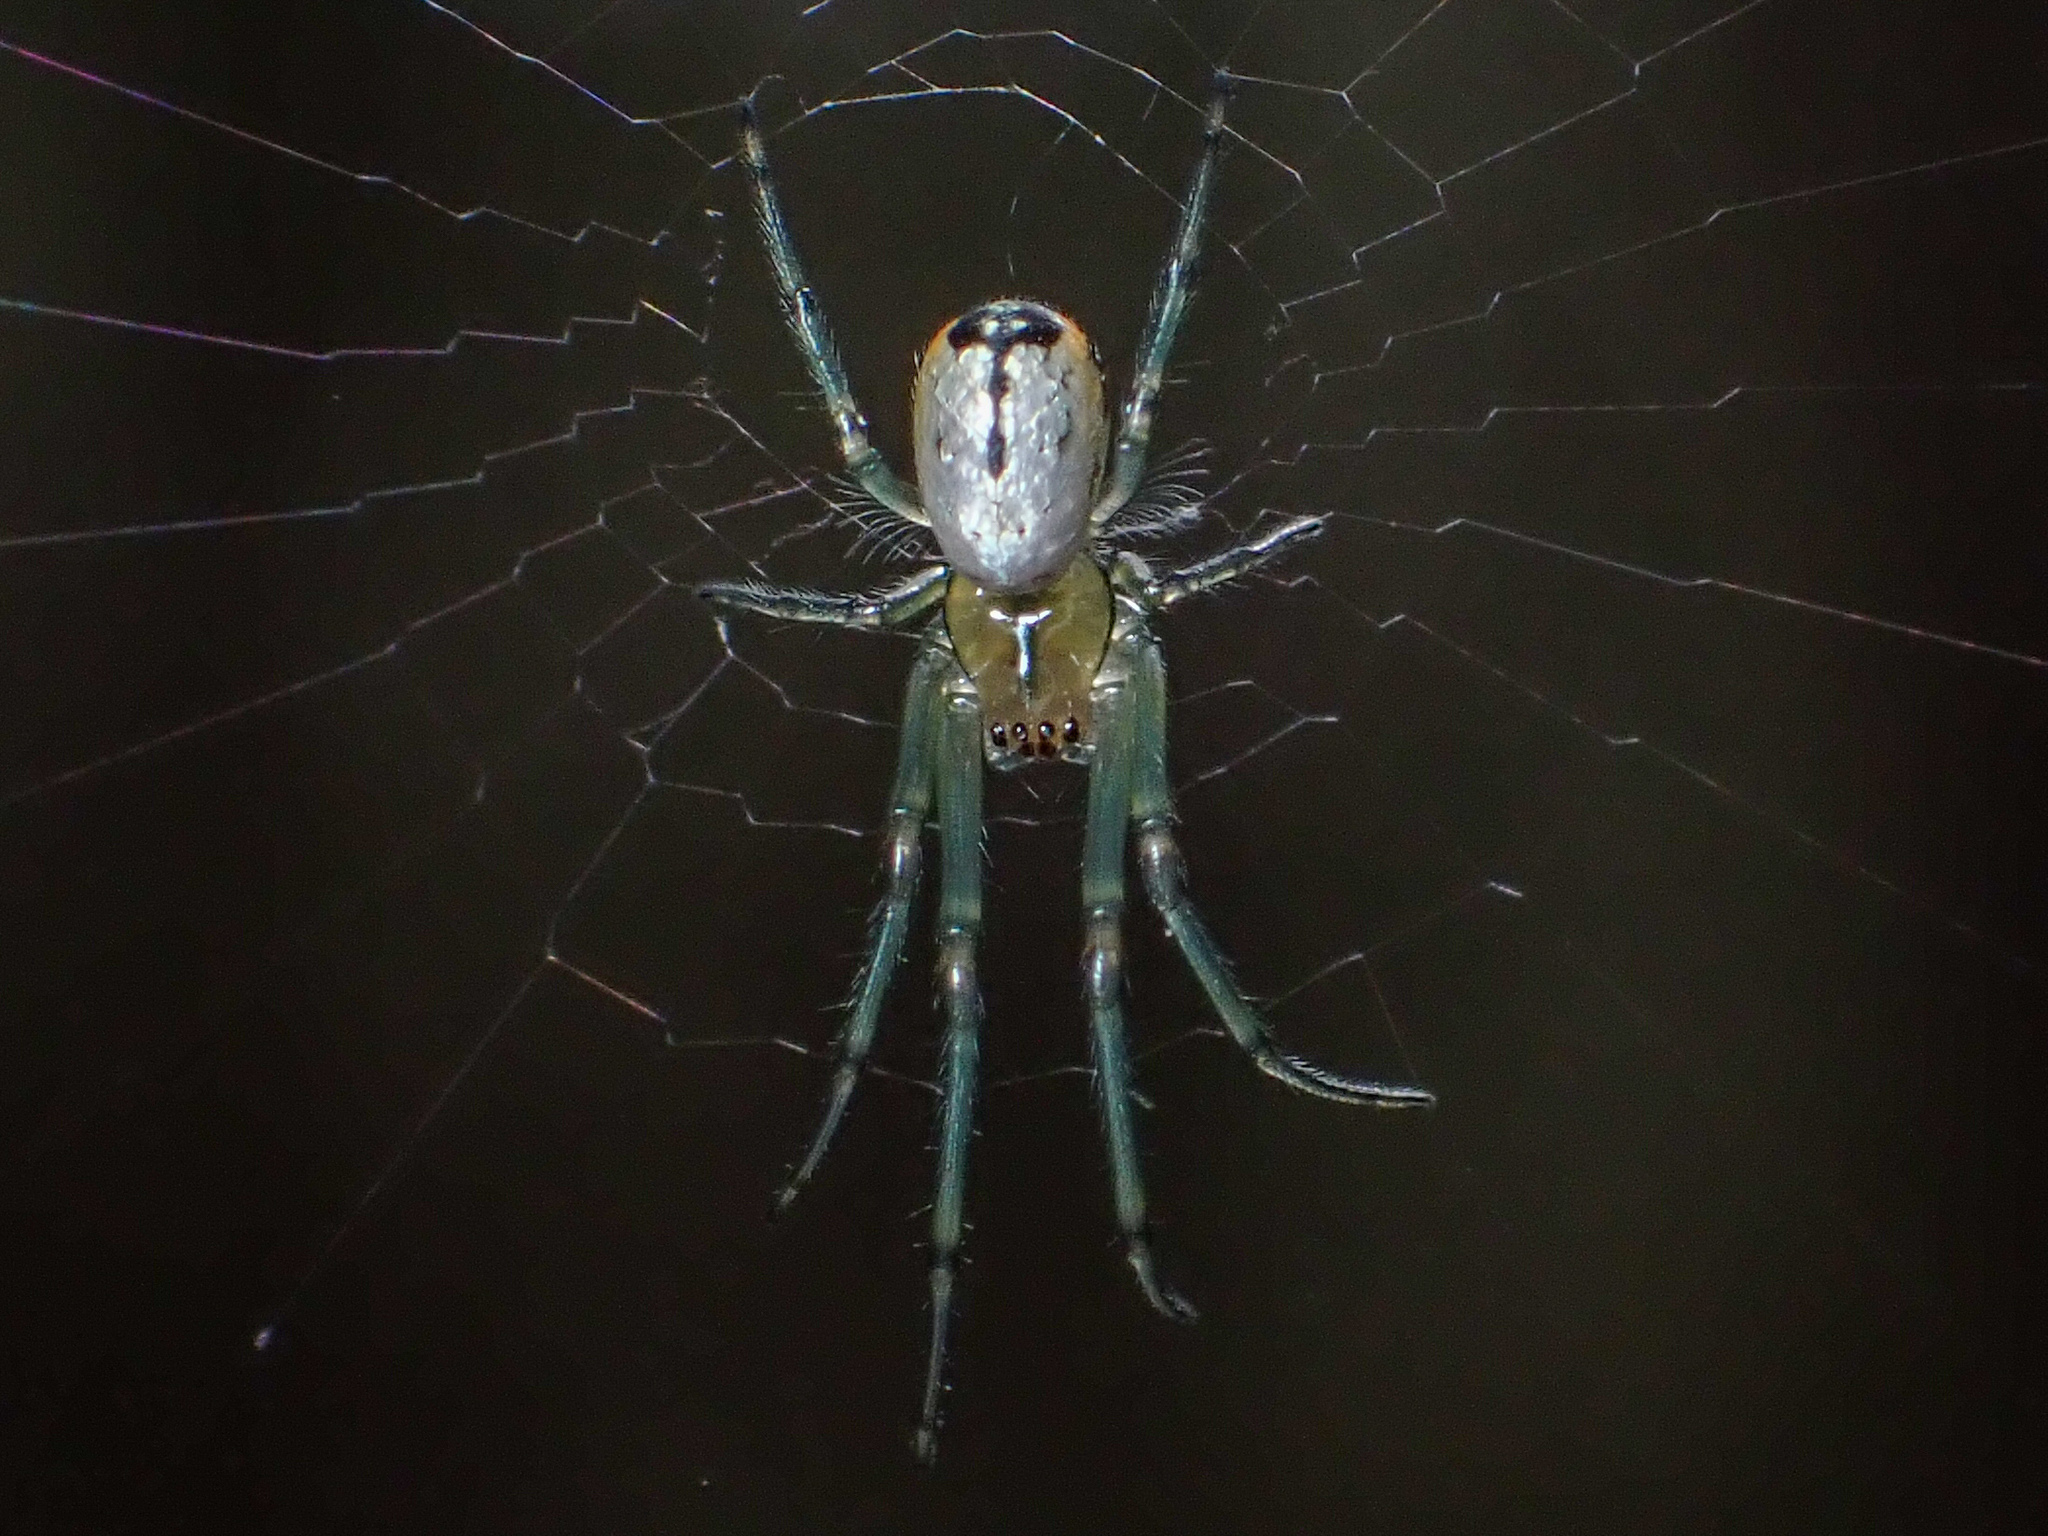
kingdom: Animalia
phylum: Arthropoda
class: Arachnida
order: Araneae
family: Tetragnathidae
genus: Leucauge
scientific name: Leucauge venusta
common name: Longjawed orb weavers
